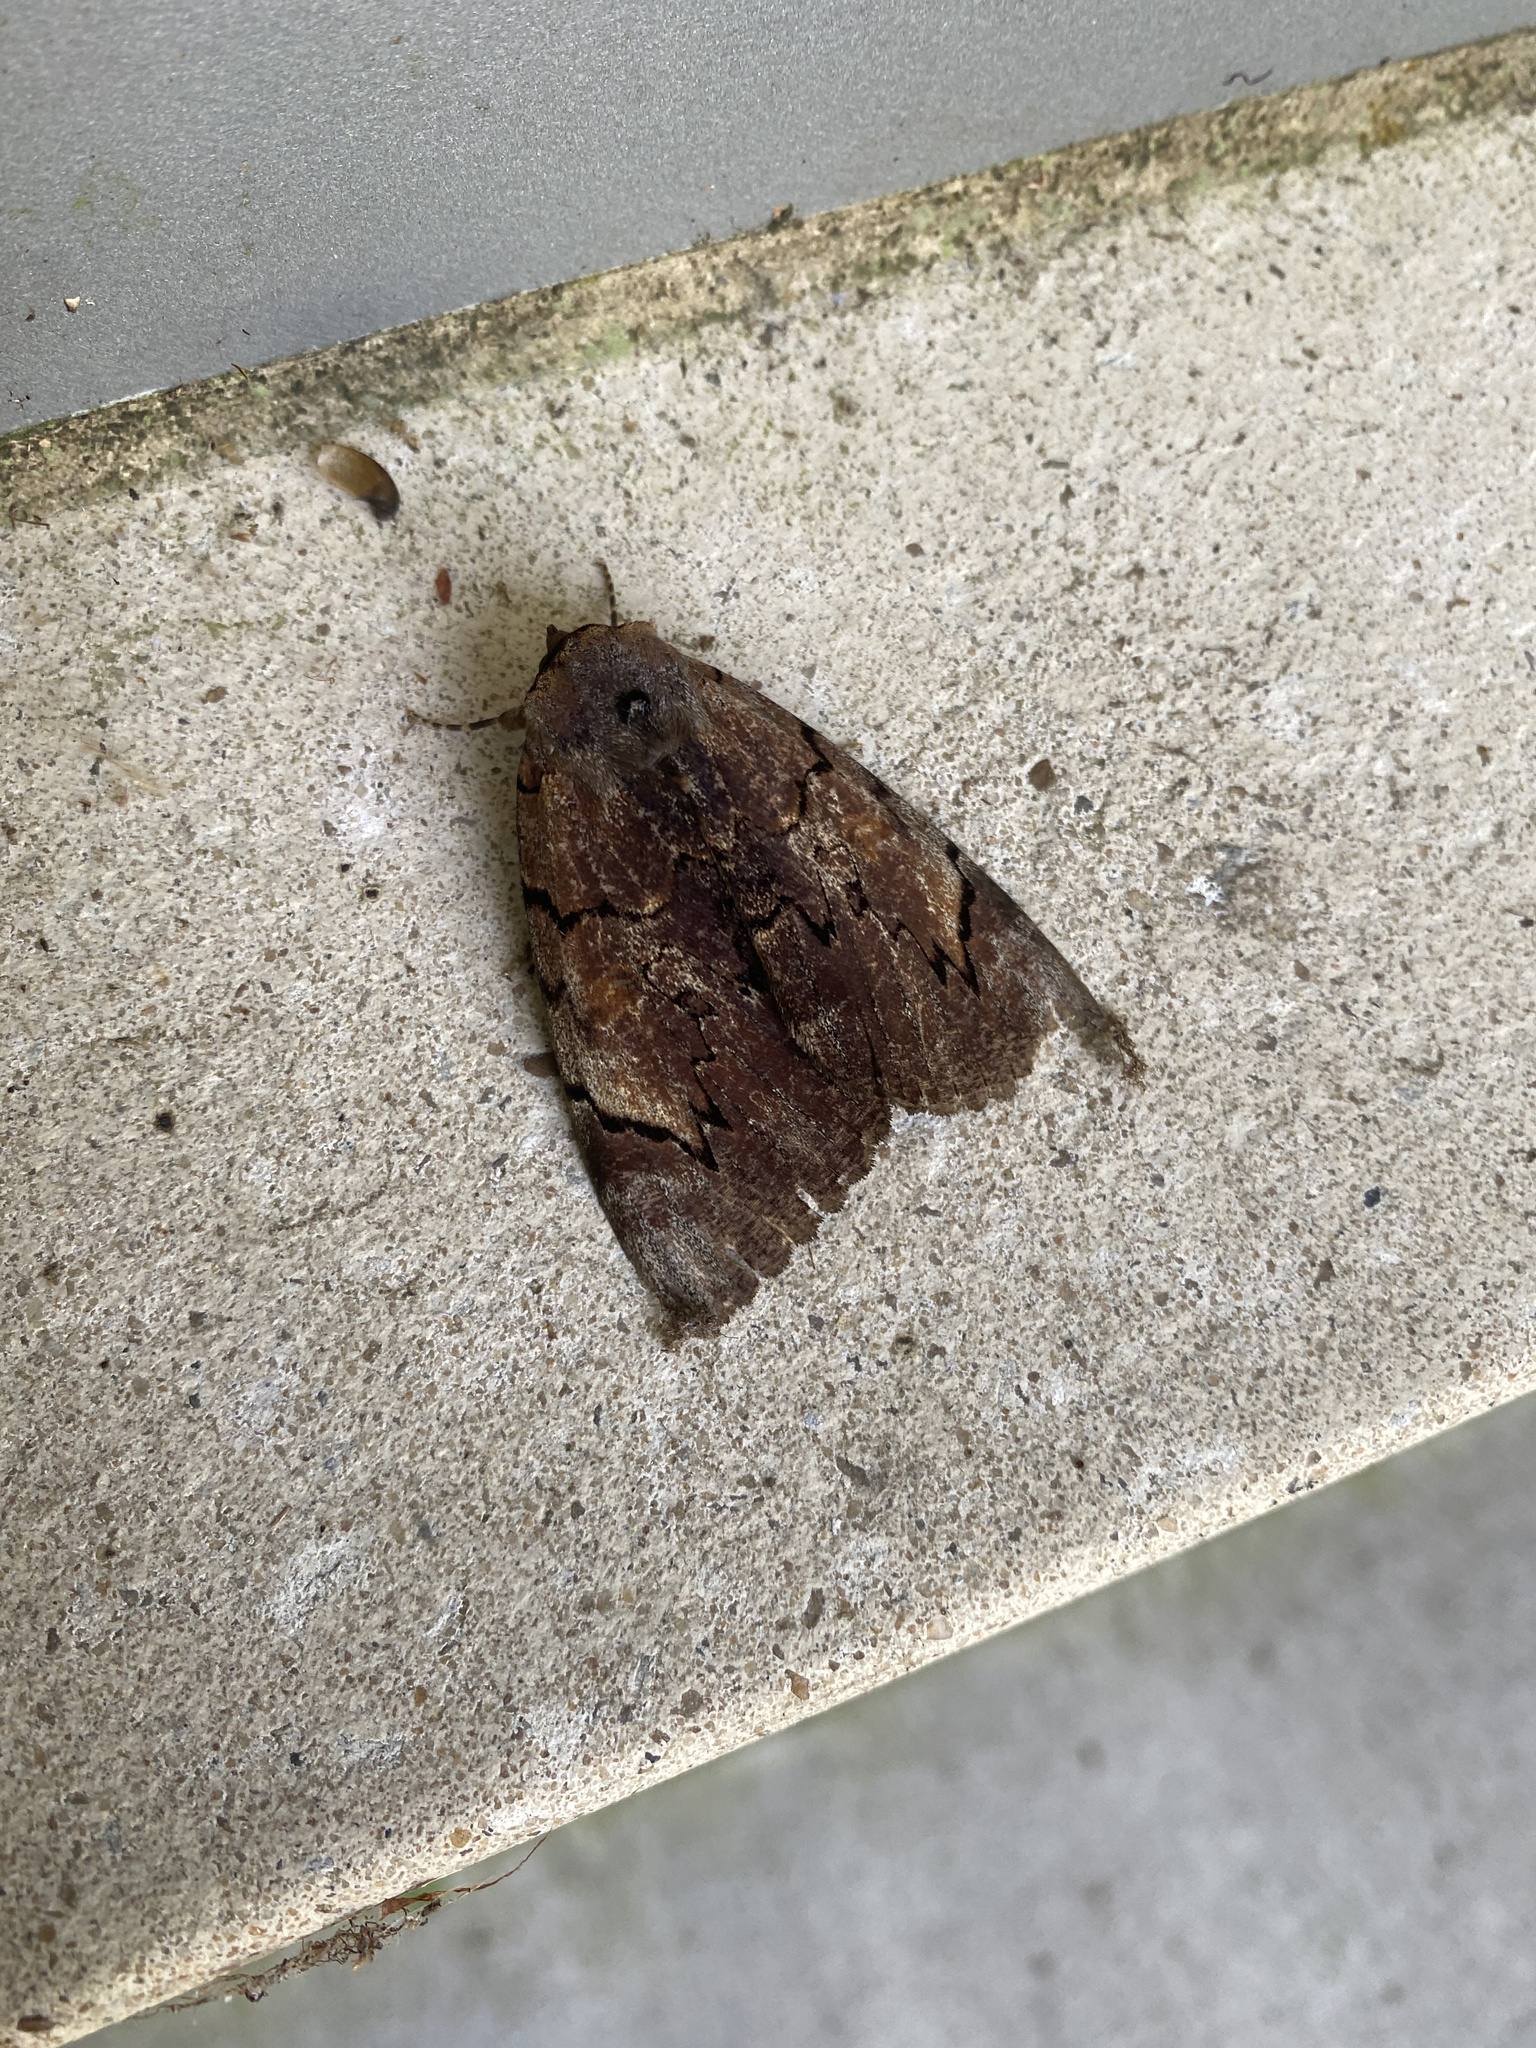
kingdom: Animalia
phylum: Arthropoda
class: Insecta
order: Lepidoptera
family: Erebidae
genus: Catocala
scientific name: Catocala carissima
